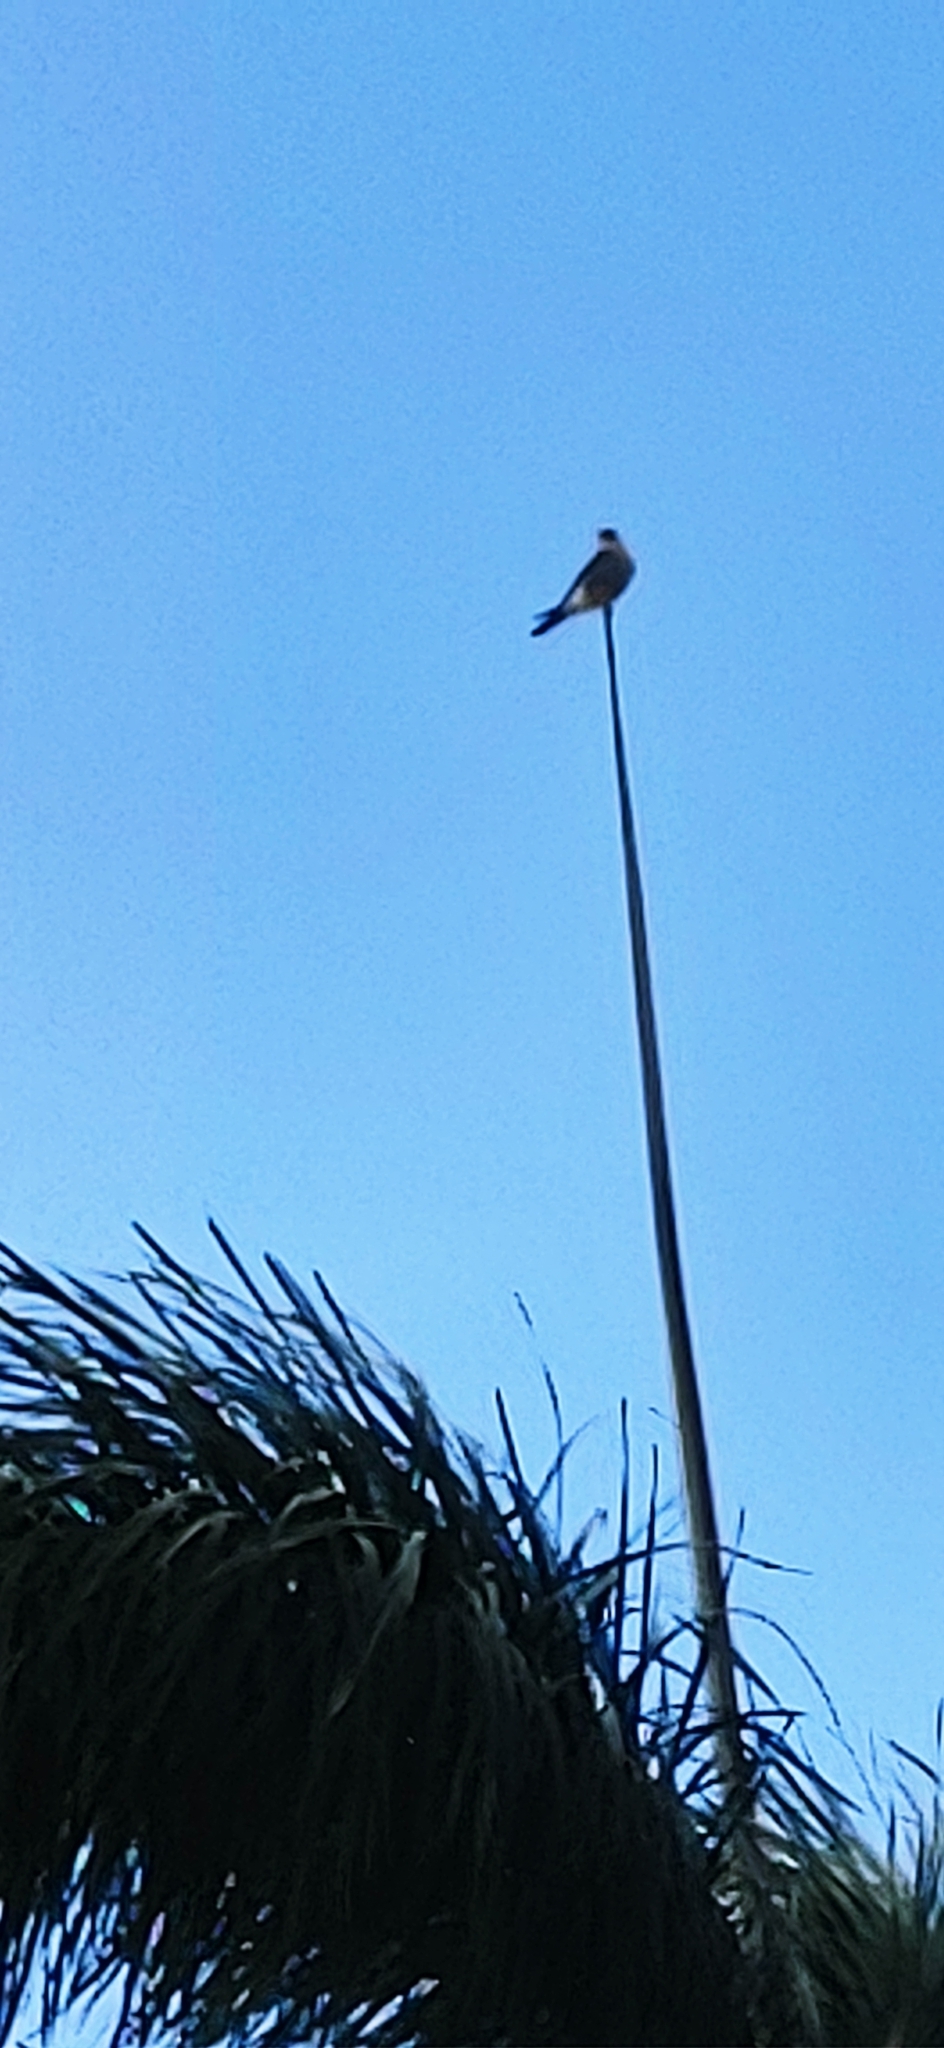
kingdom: Animalia
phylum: Chordata
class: Aves
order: Falconiformes
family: Falconidae
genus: Falco
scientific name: Falco sparverius
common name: American kestrel
